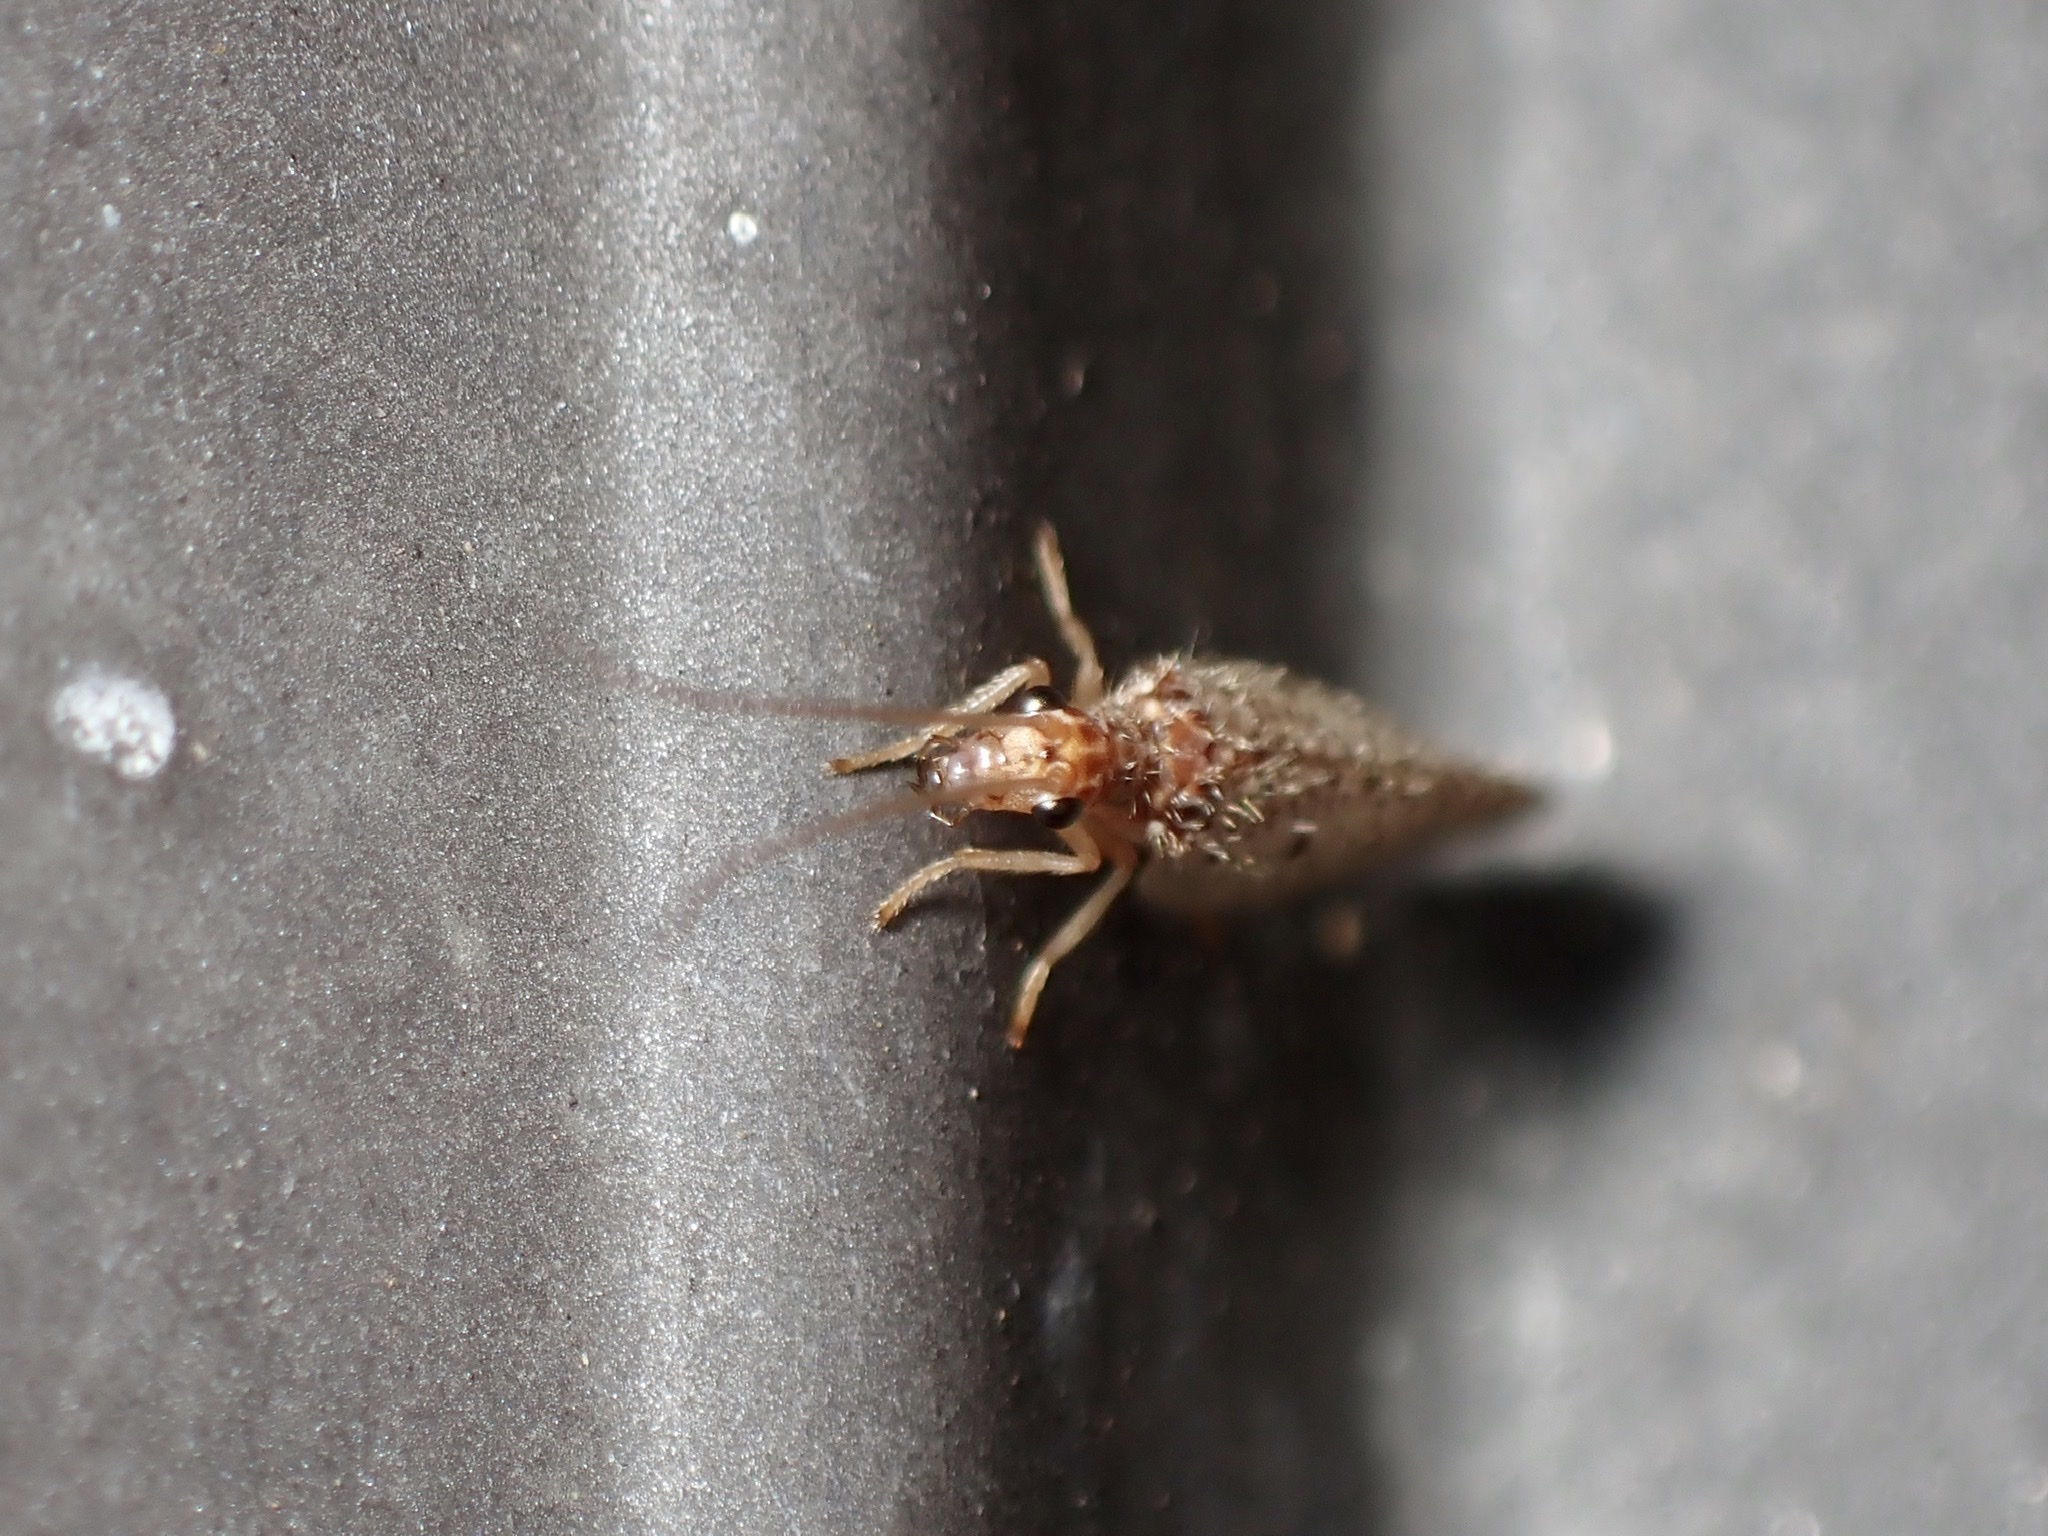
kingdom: Animalia
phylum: Arthropoda
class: Insecta
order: Neuroptera
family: Hemerobiidae
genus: Micromus
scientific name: Micromus subanticus
